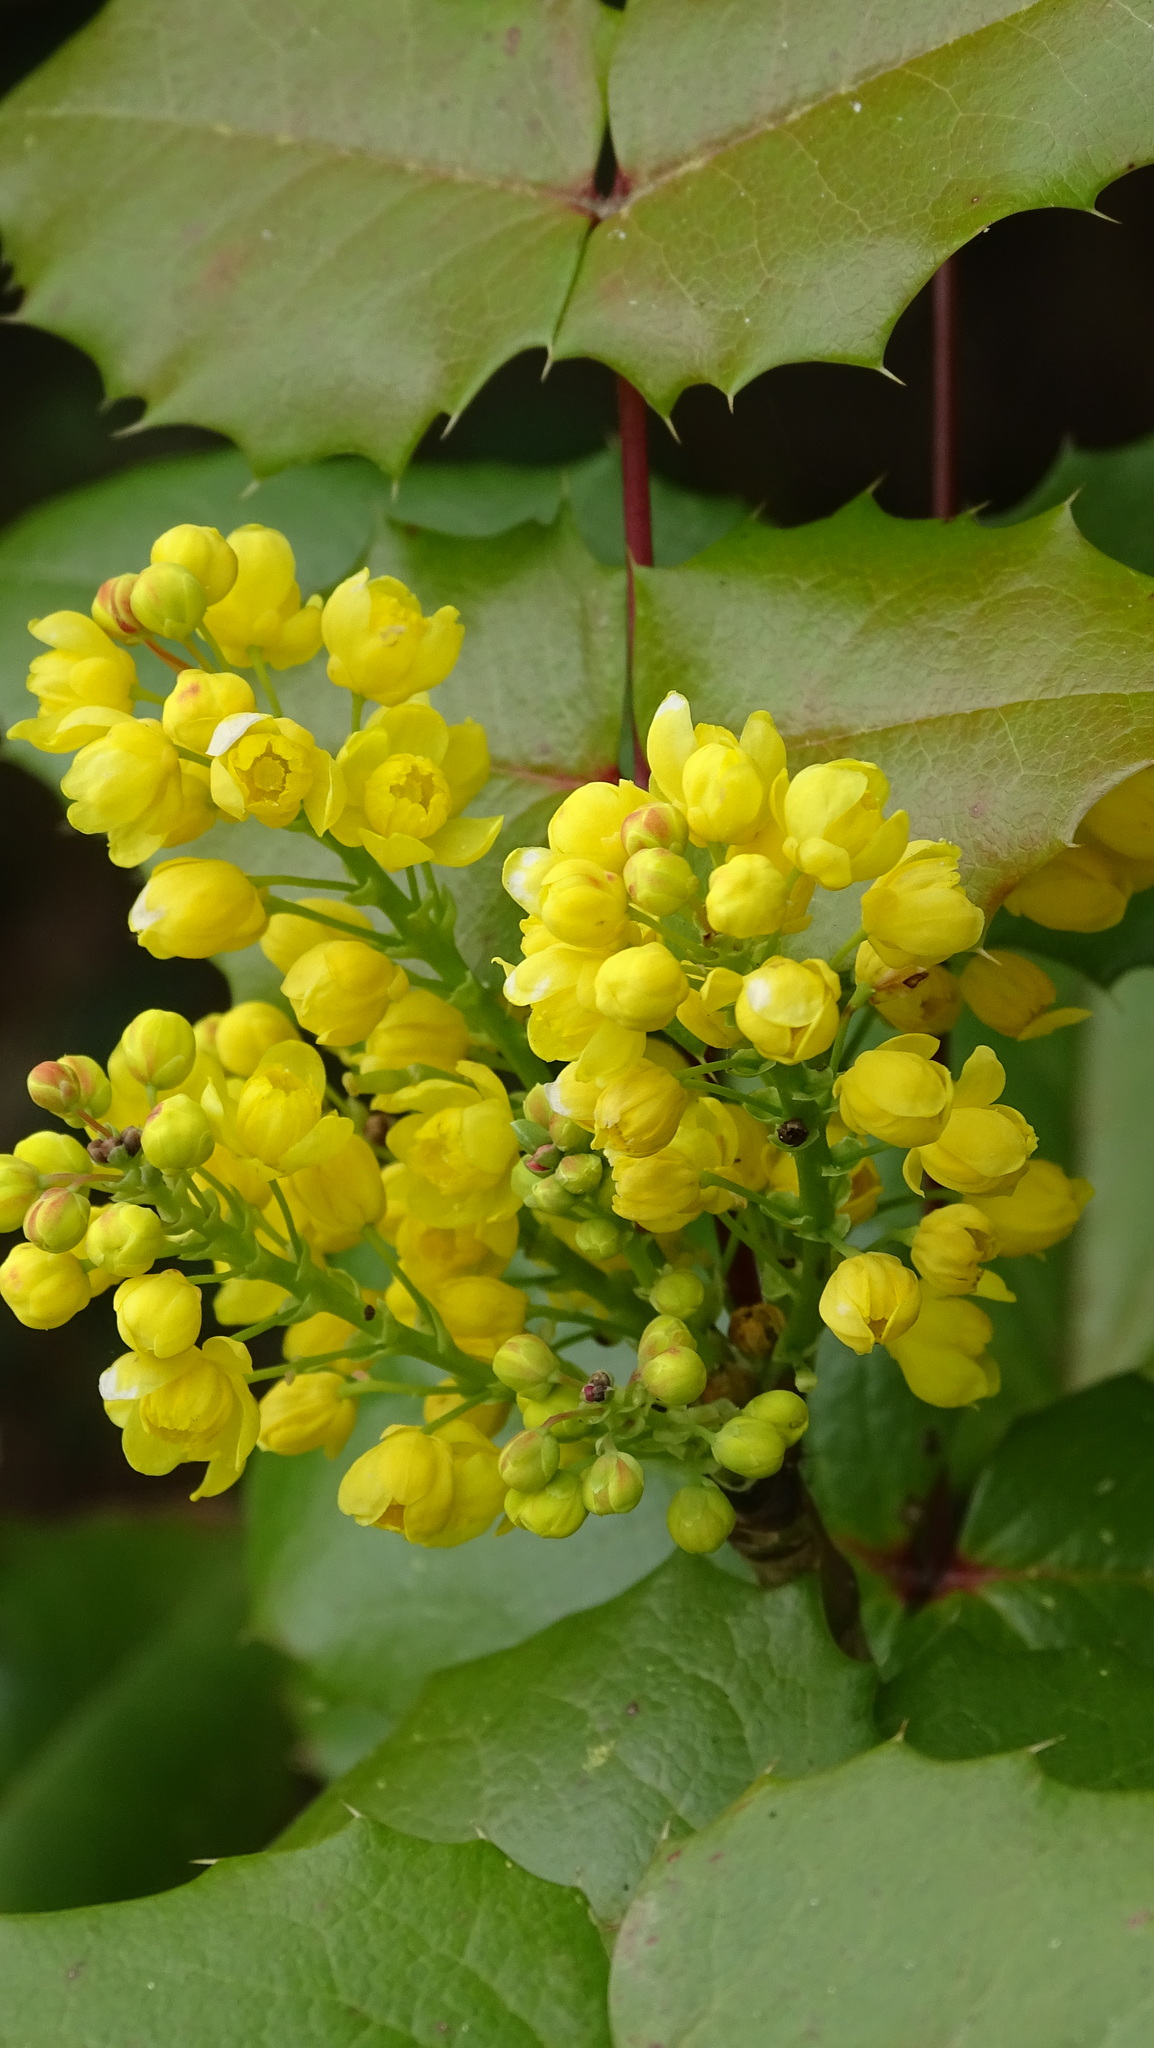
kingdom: Plantae
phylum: Tracheophyta
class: Magnoliopsida
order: Ranunculales
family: Berberidaceae
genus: Mahonia
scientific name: Mahonia aquifolium
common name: Oregon-grape
